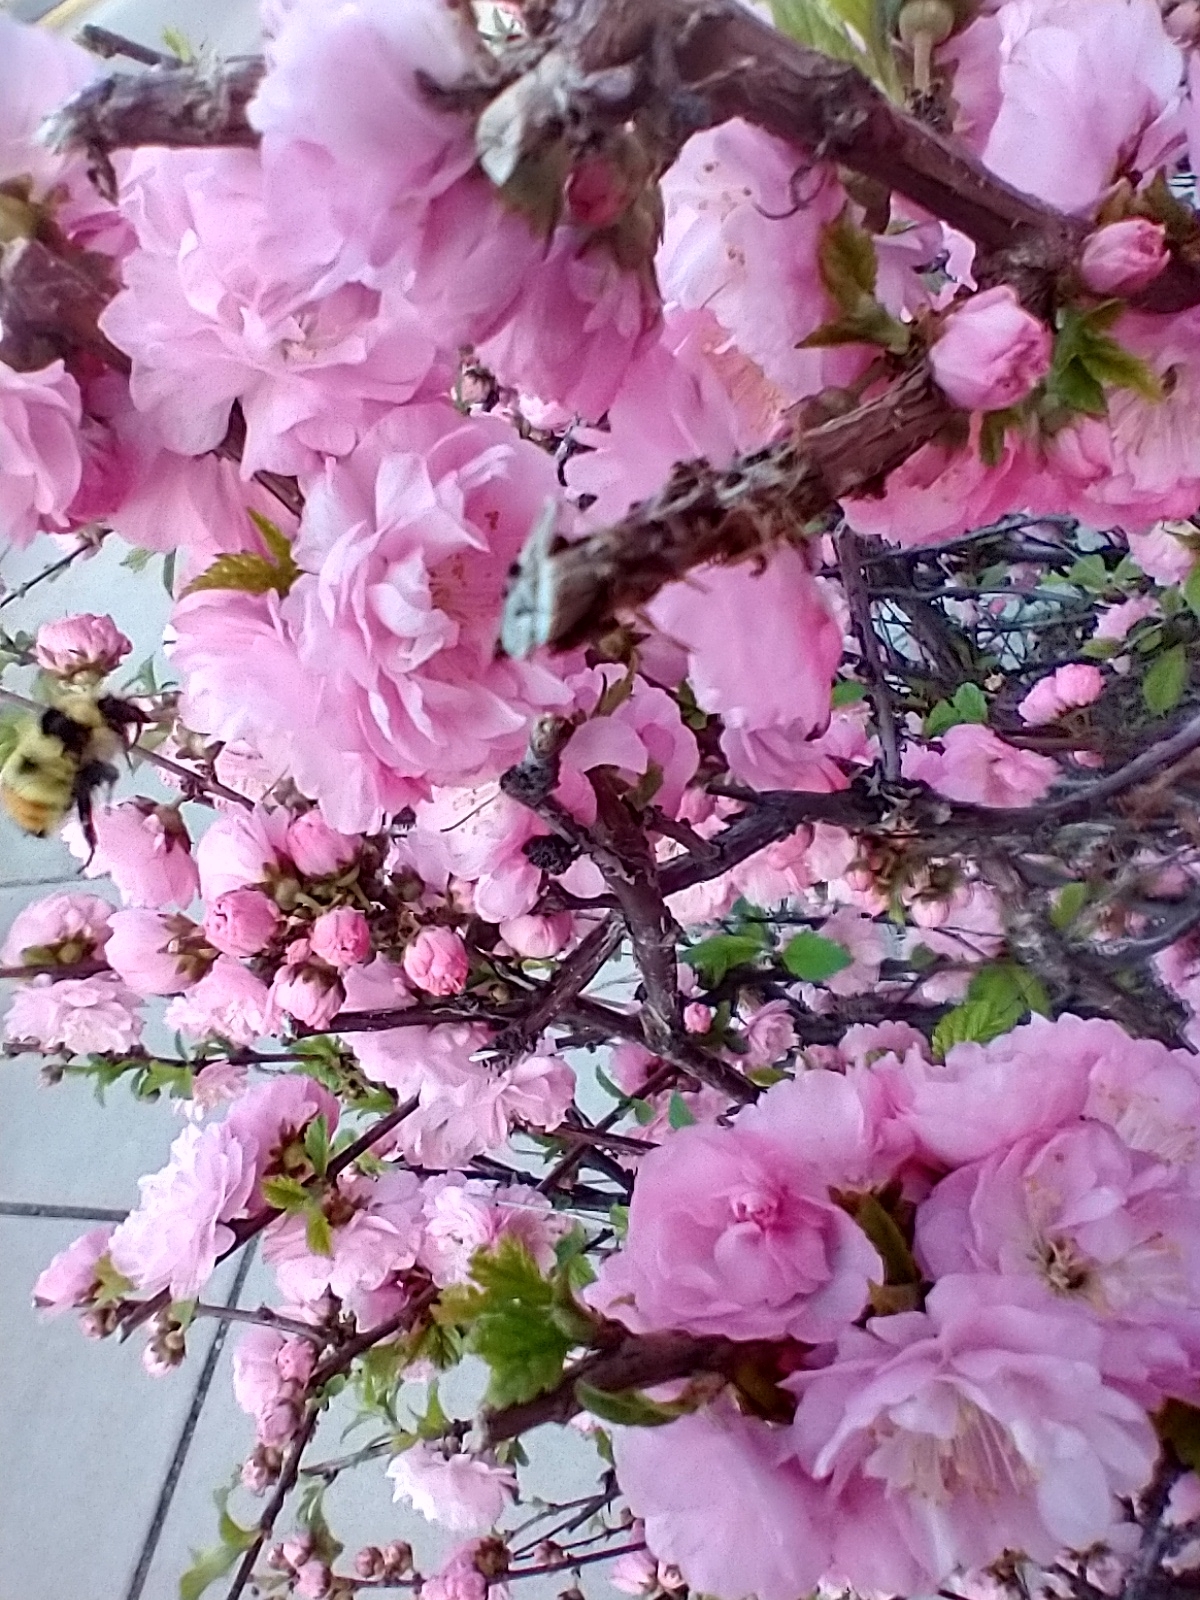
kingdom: Animalia
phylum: Arthropoda
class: Insecta
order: Hymenoptera
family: Apidae
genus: Bombus
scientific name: Bombus centralis
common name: Central bumble bee
